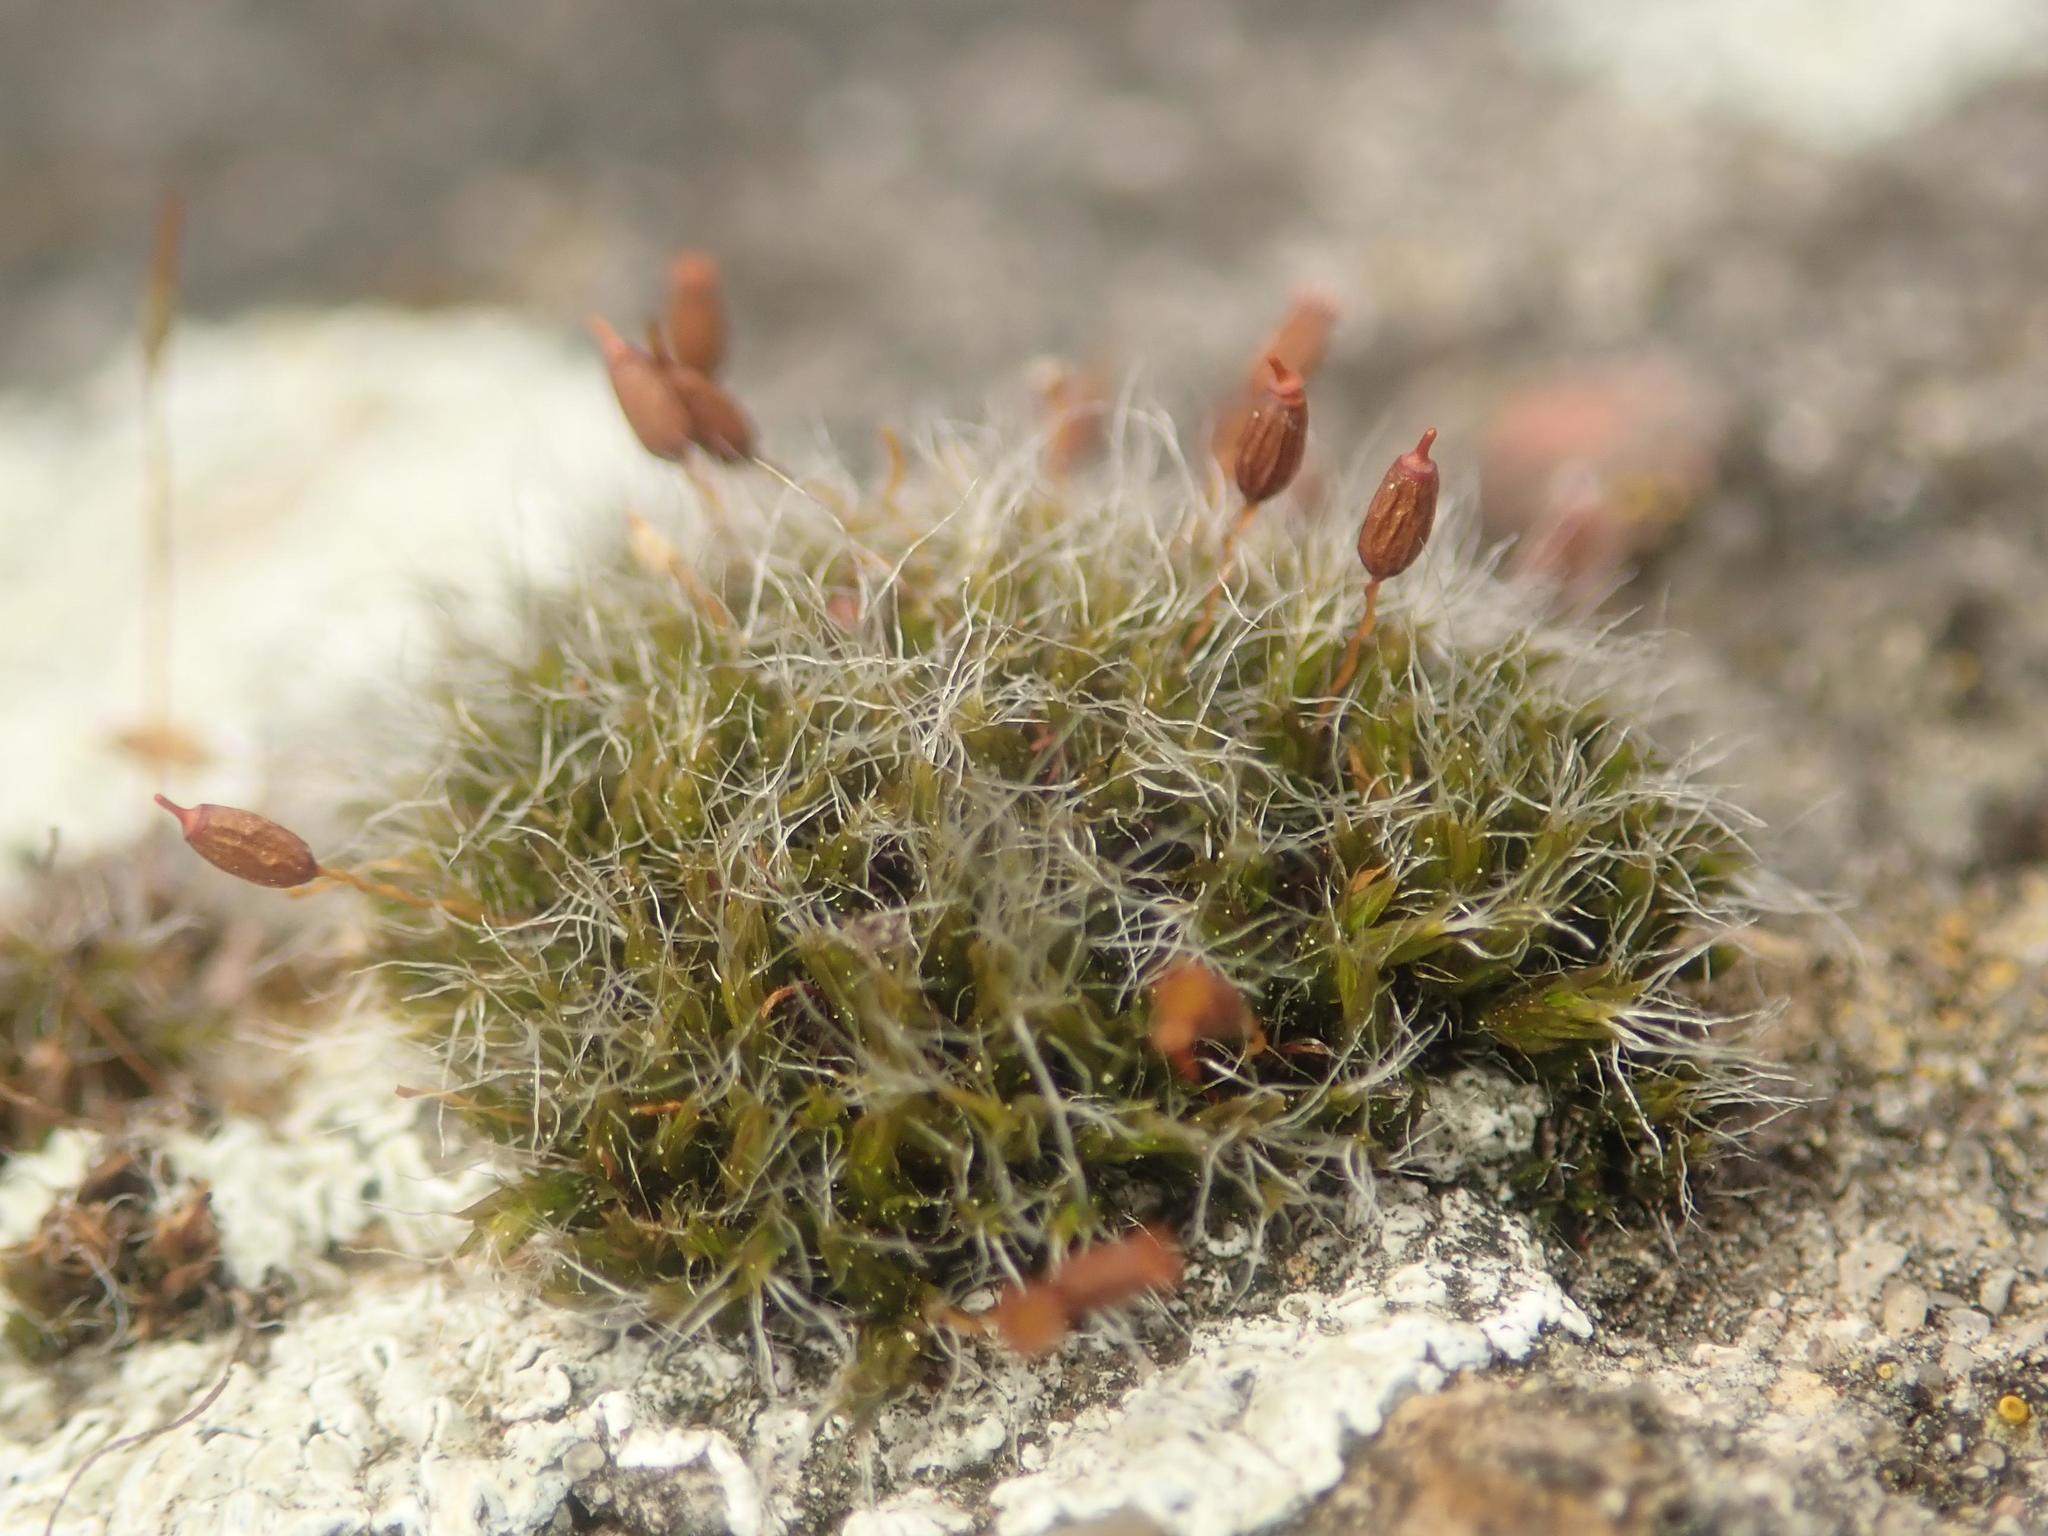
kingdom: Plantae
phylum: Bryophyta
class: Bryopsida
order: Grimmiales
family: Grimmiaceae
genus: Grimmia
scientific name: Grimmia pulvinata
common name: Grey-cushioned grimmia
